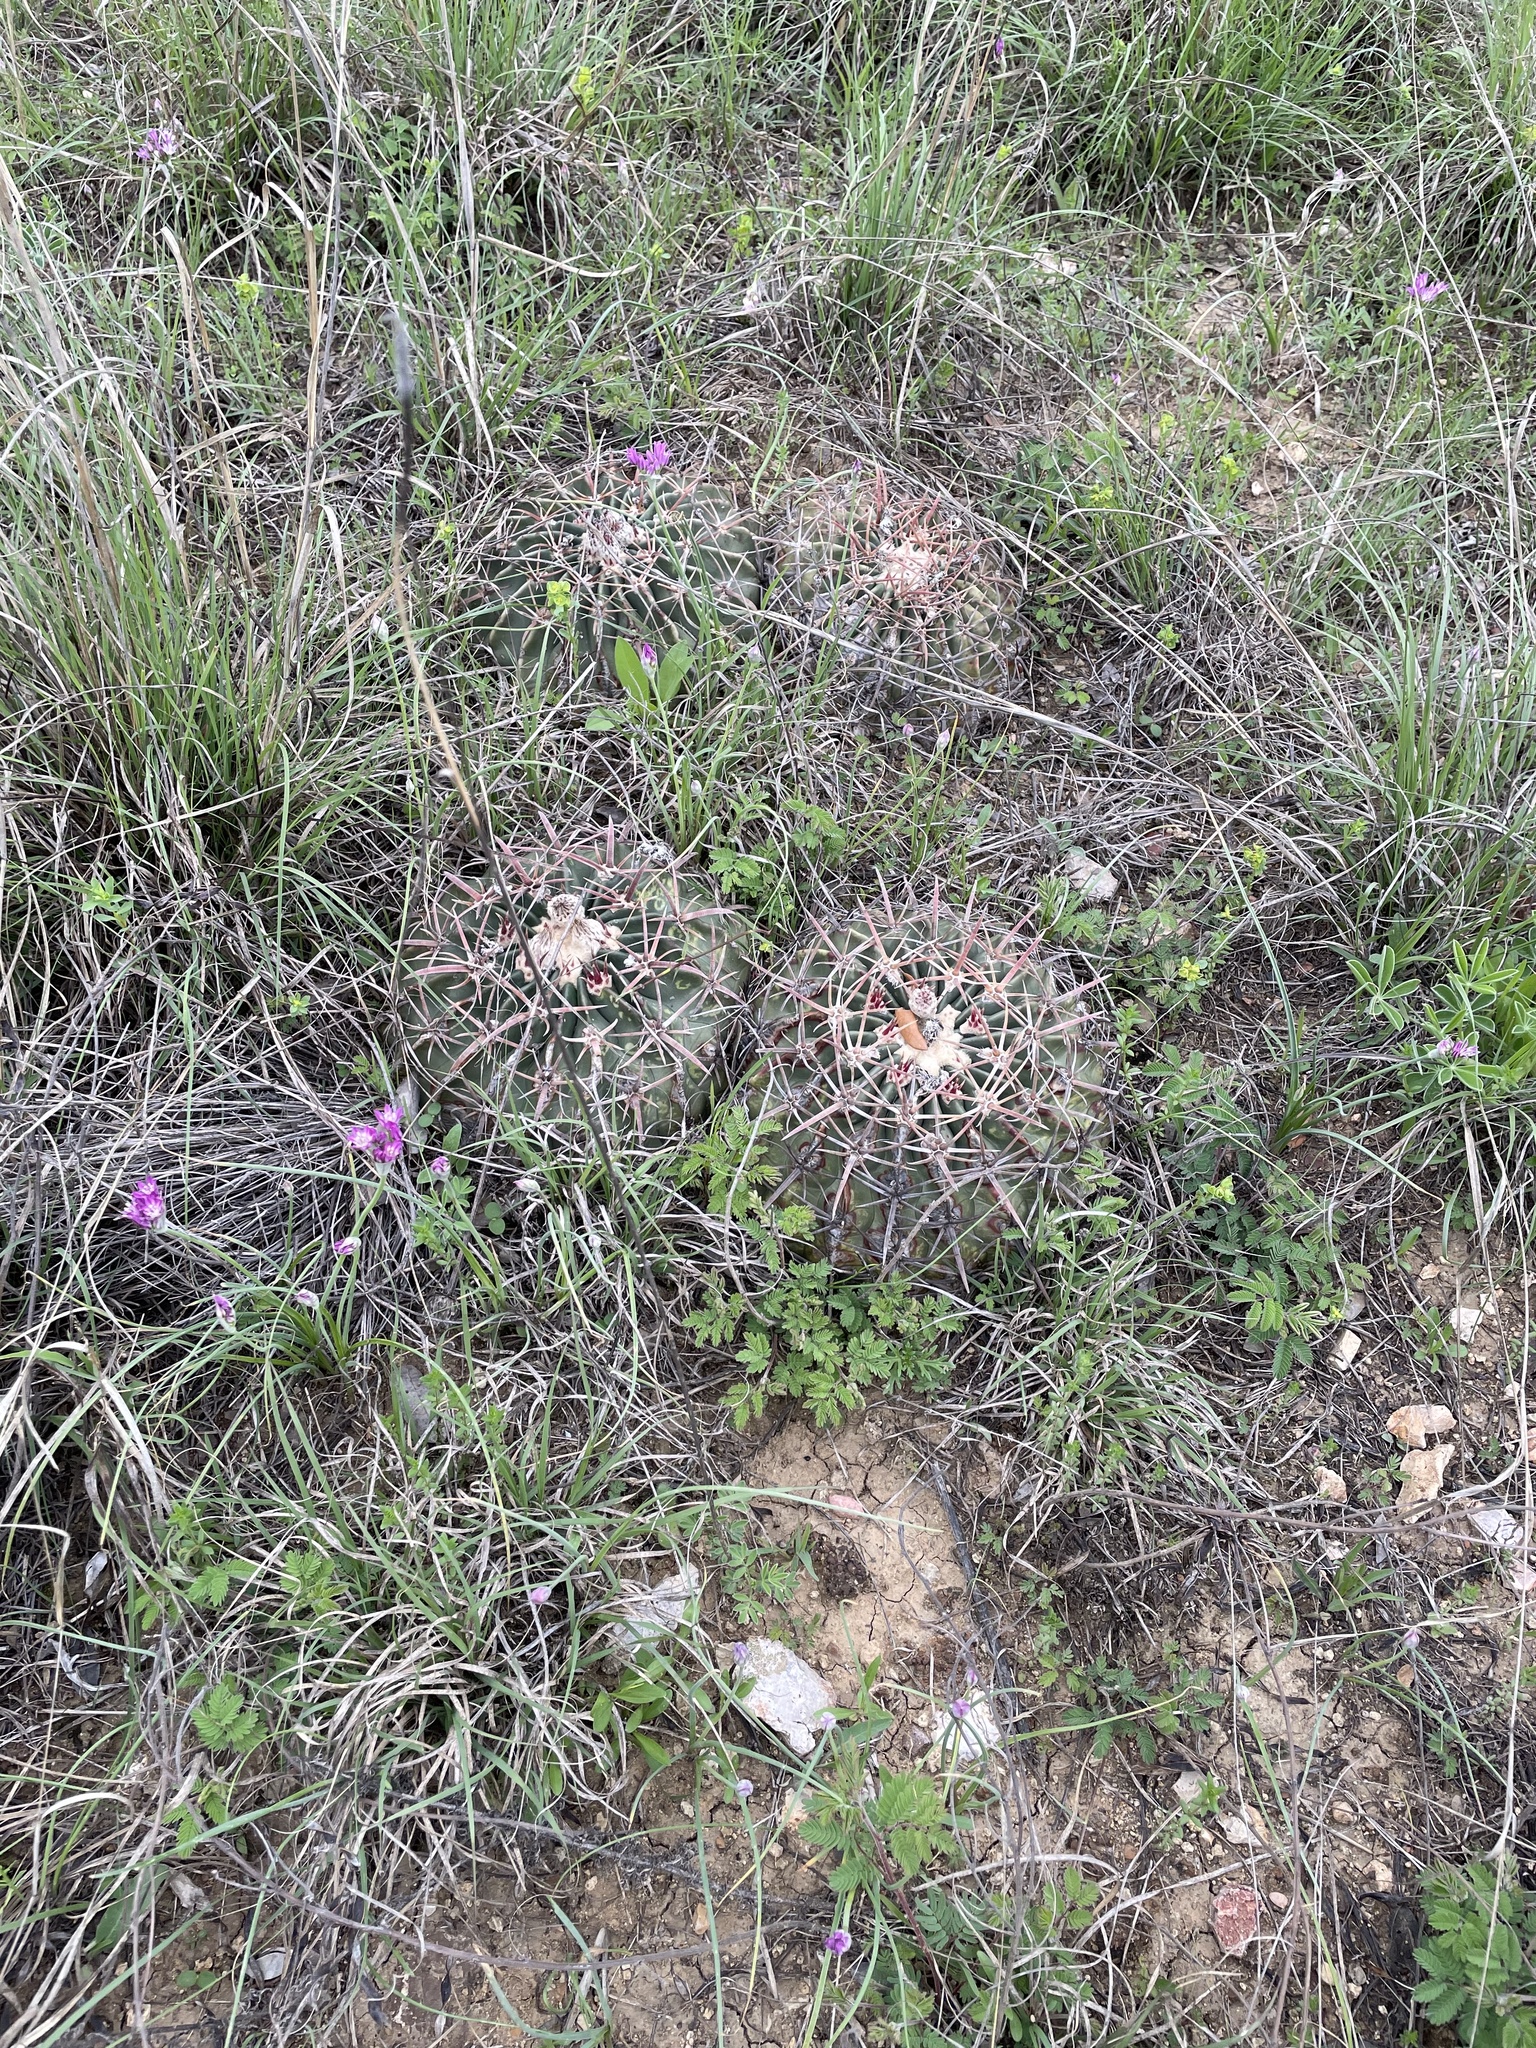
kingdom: Plantae
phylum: Tracheophyta
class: Magnoliopsida
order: Caryophyllales
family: Cactaceae
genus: Echinocactus
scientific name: Echinocactus texensis
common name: Devil's pincushion
